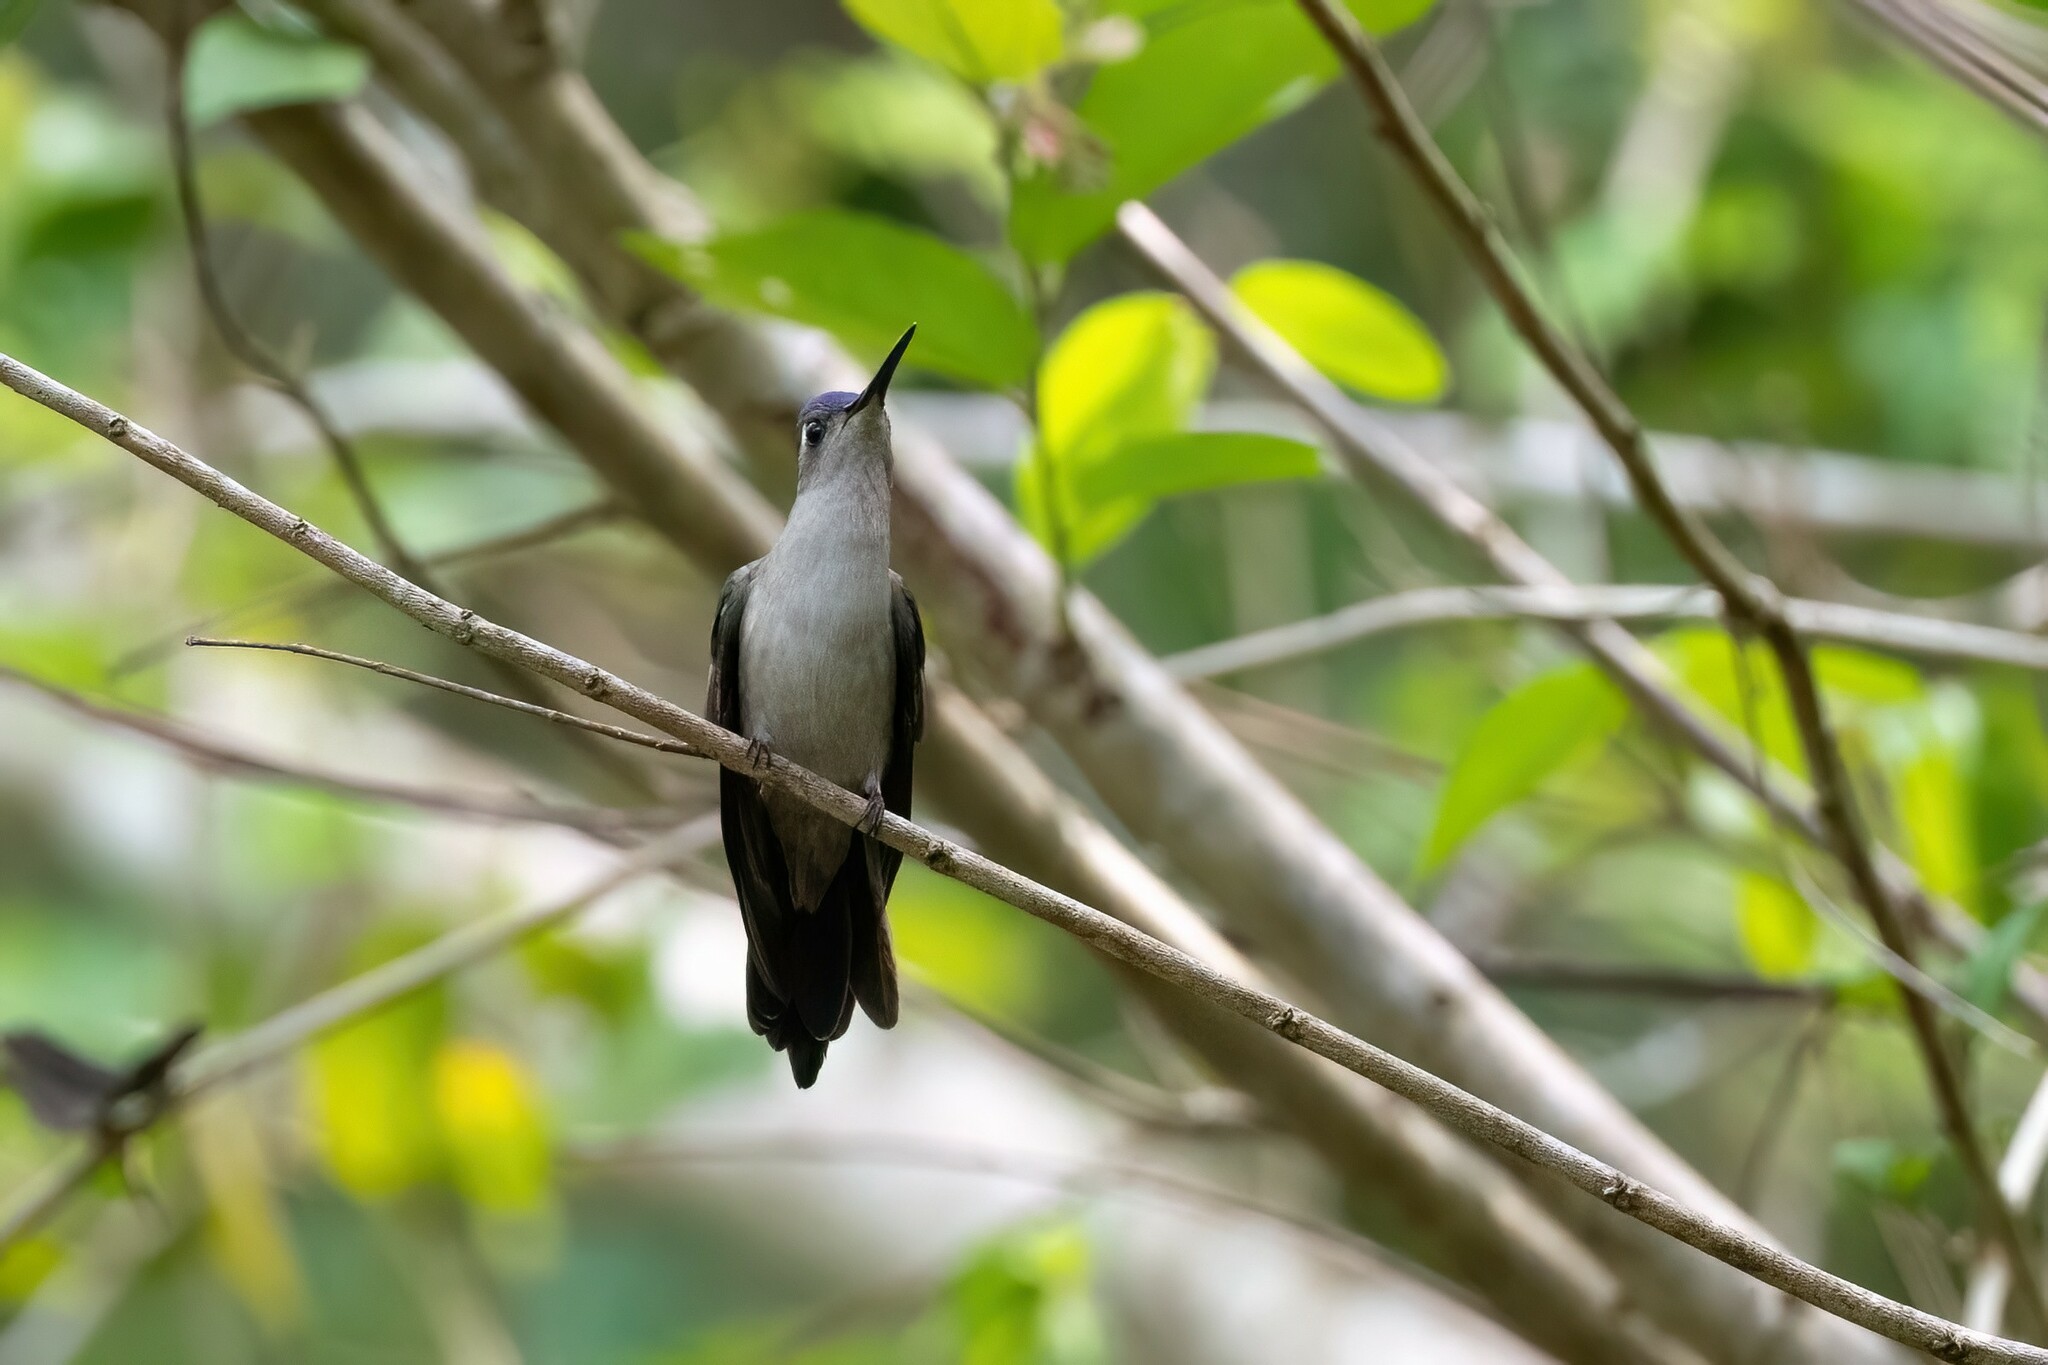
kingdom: Animalia
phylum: Chordata
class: Aves
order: Apodiformes
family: Trochilidae
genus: Pampa
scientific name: Pampa curvipennis
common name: Curve-winged sabrewing
